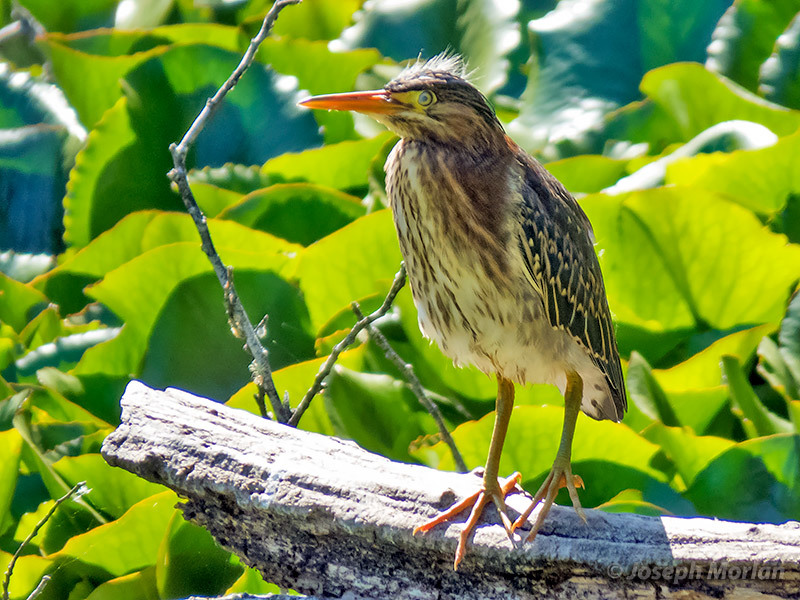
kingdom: Animalia
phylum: Chordata
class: Aves
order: Pelecaniformes
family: Ardeidae
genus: Butorides
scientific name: Butorides virescens
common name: Green heron
